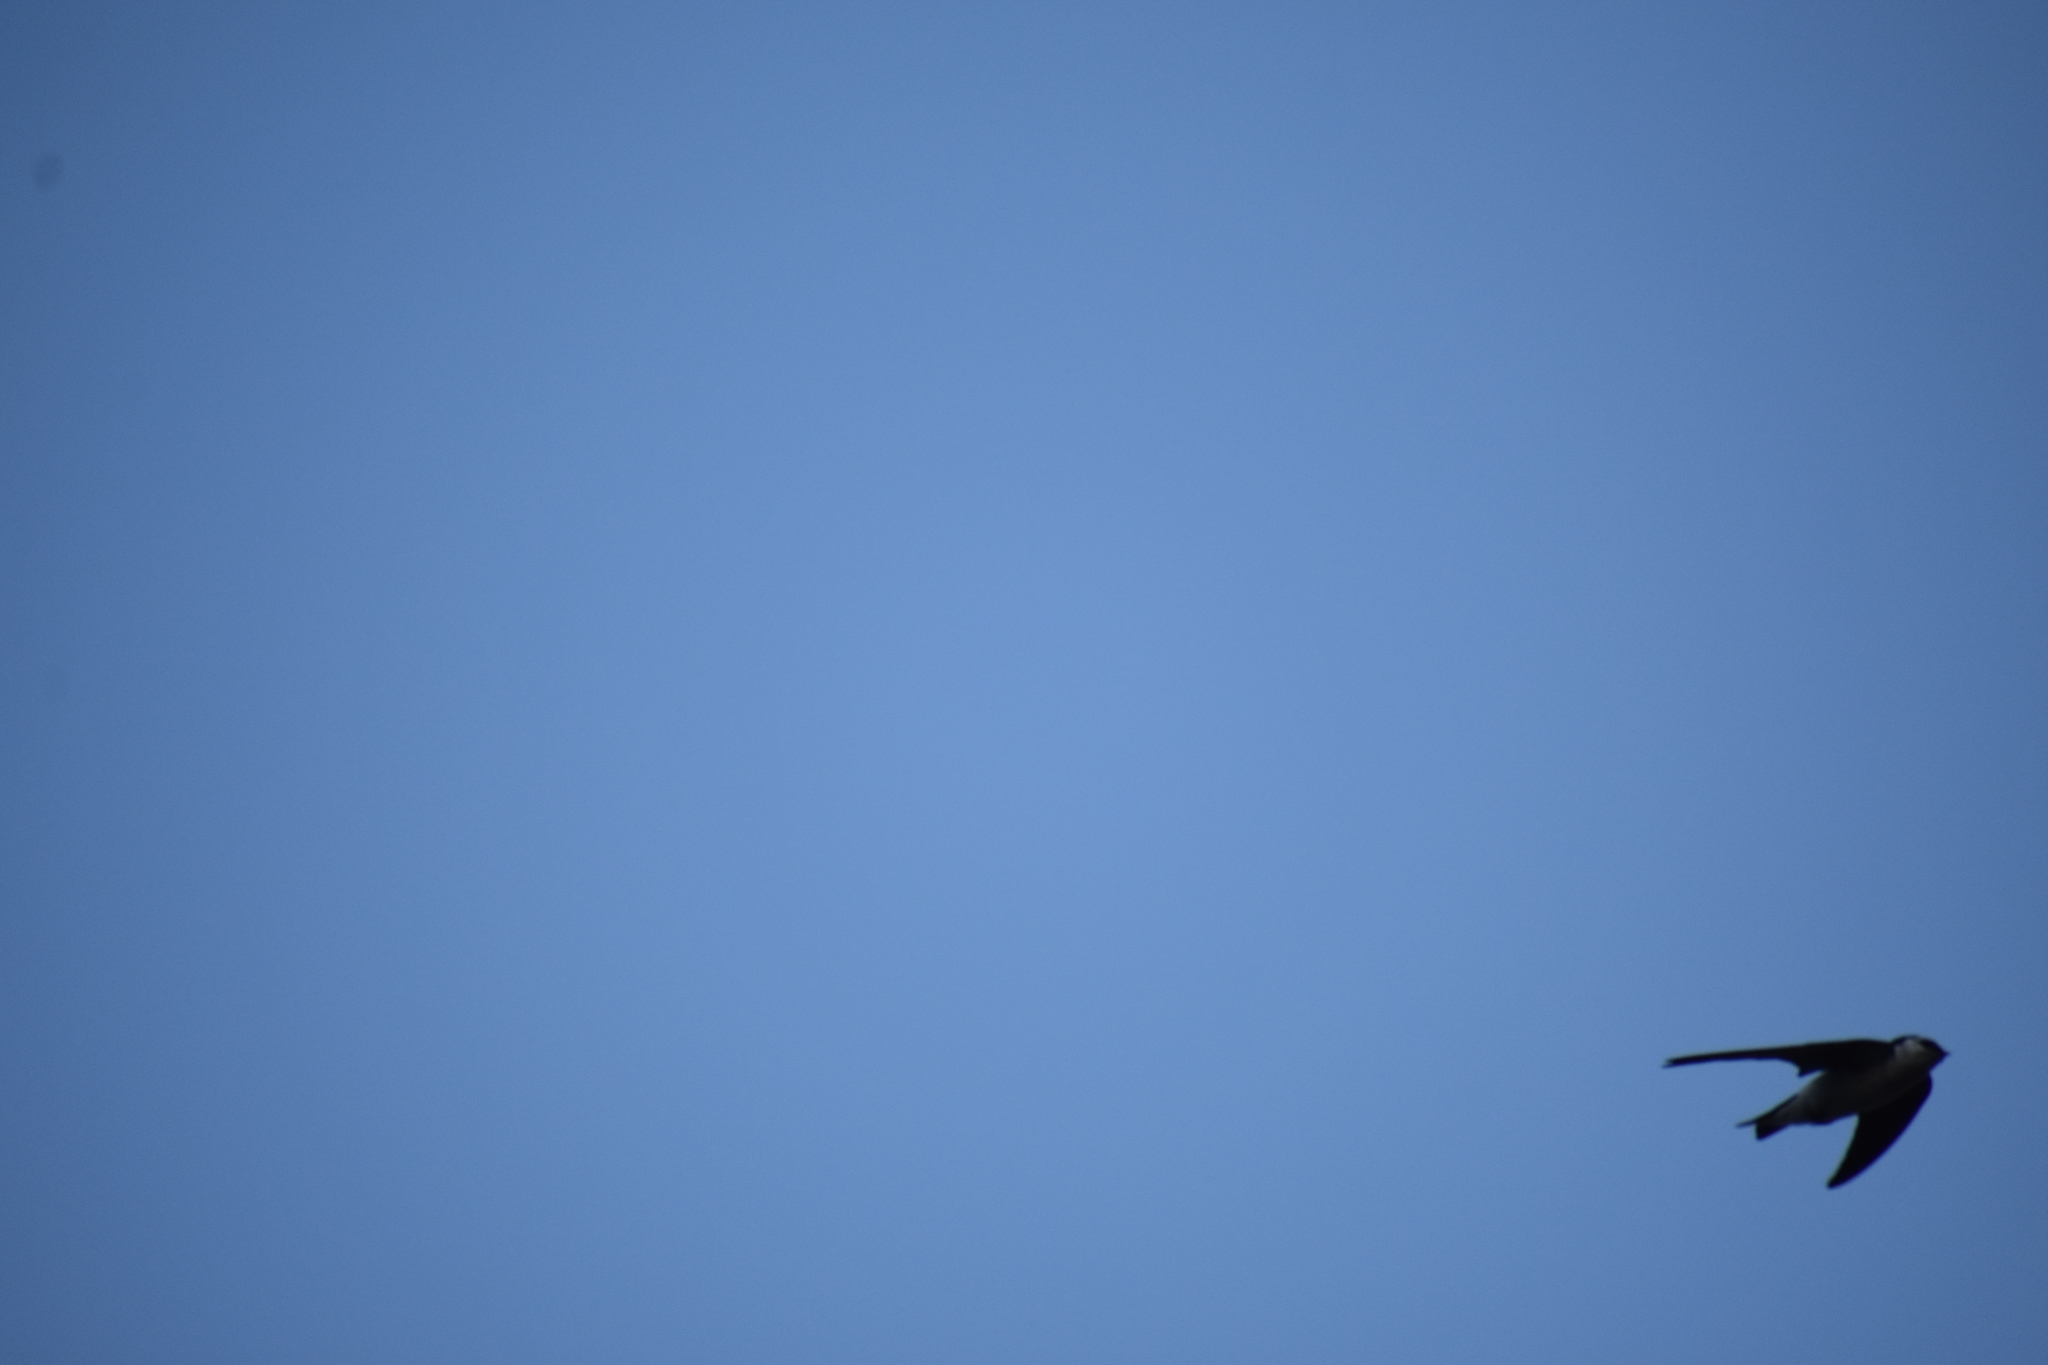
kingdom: Animalia
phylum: Chordata
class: Aves
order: Passeriformes
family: Hirundinidae
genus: Tachycineta
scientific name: Tachycineta thalassina
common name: Violet-green swallow
